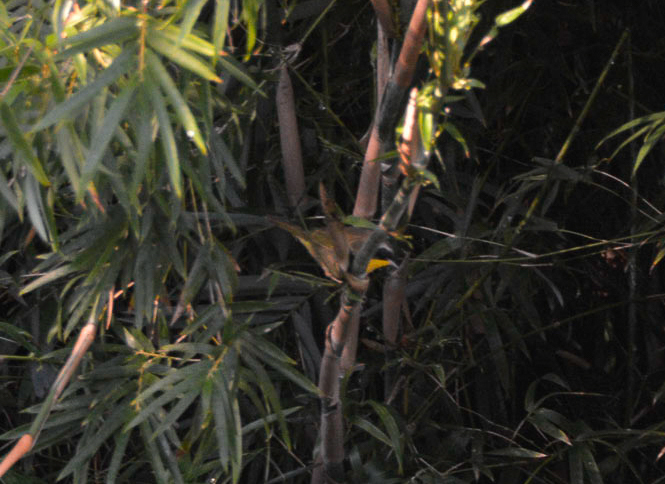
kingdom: Animalia
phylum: Chordata
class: Aves
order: Passeriformes
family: Parulidae
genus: Geothlypis
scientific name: Geothlypis trichas
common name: Common yellowthroat
